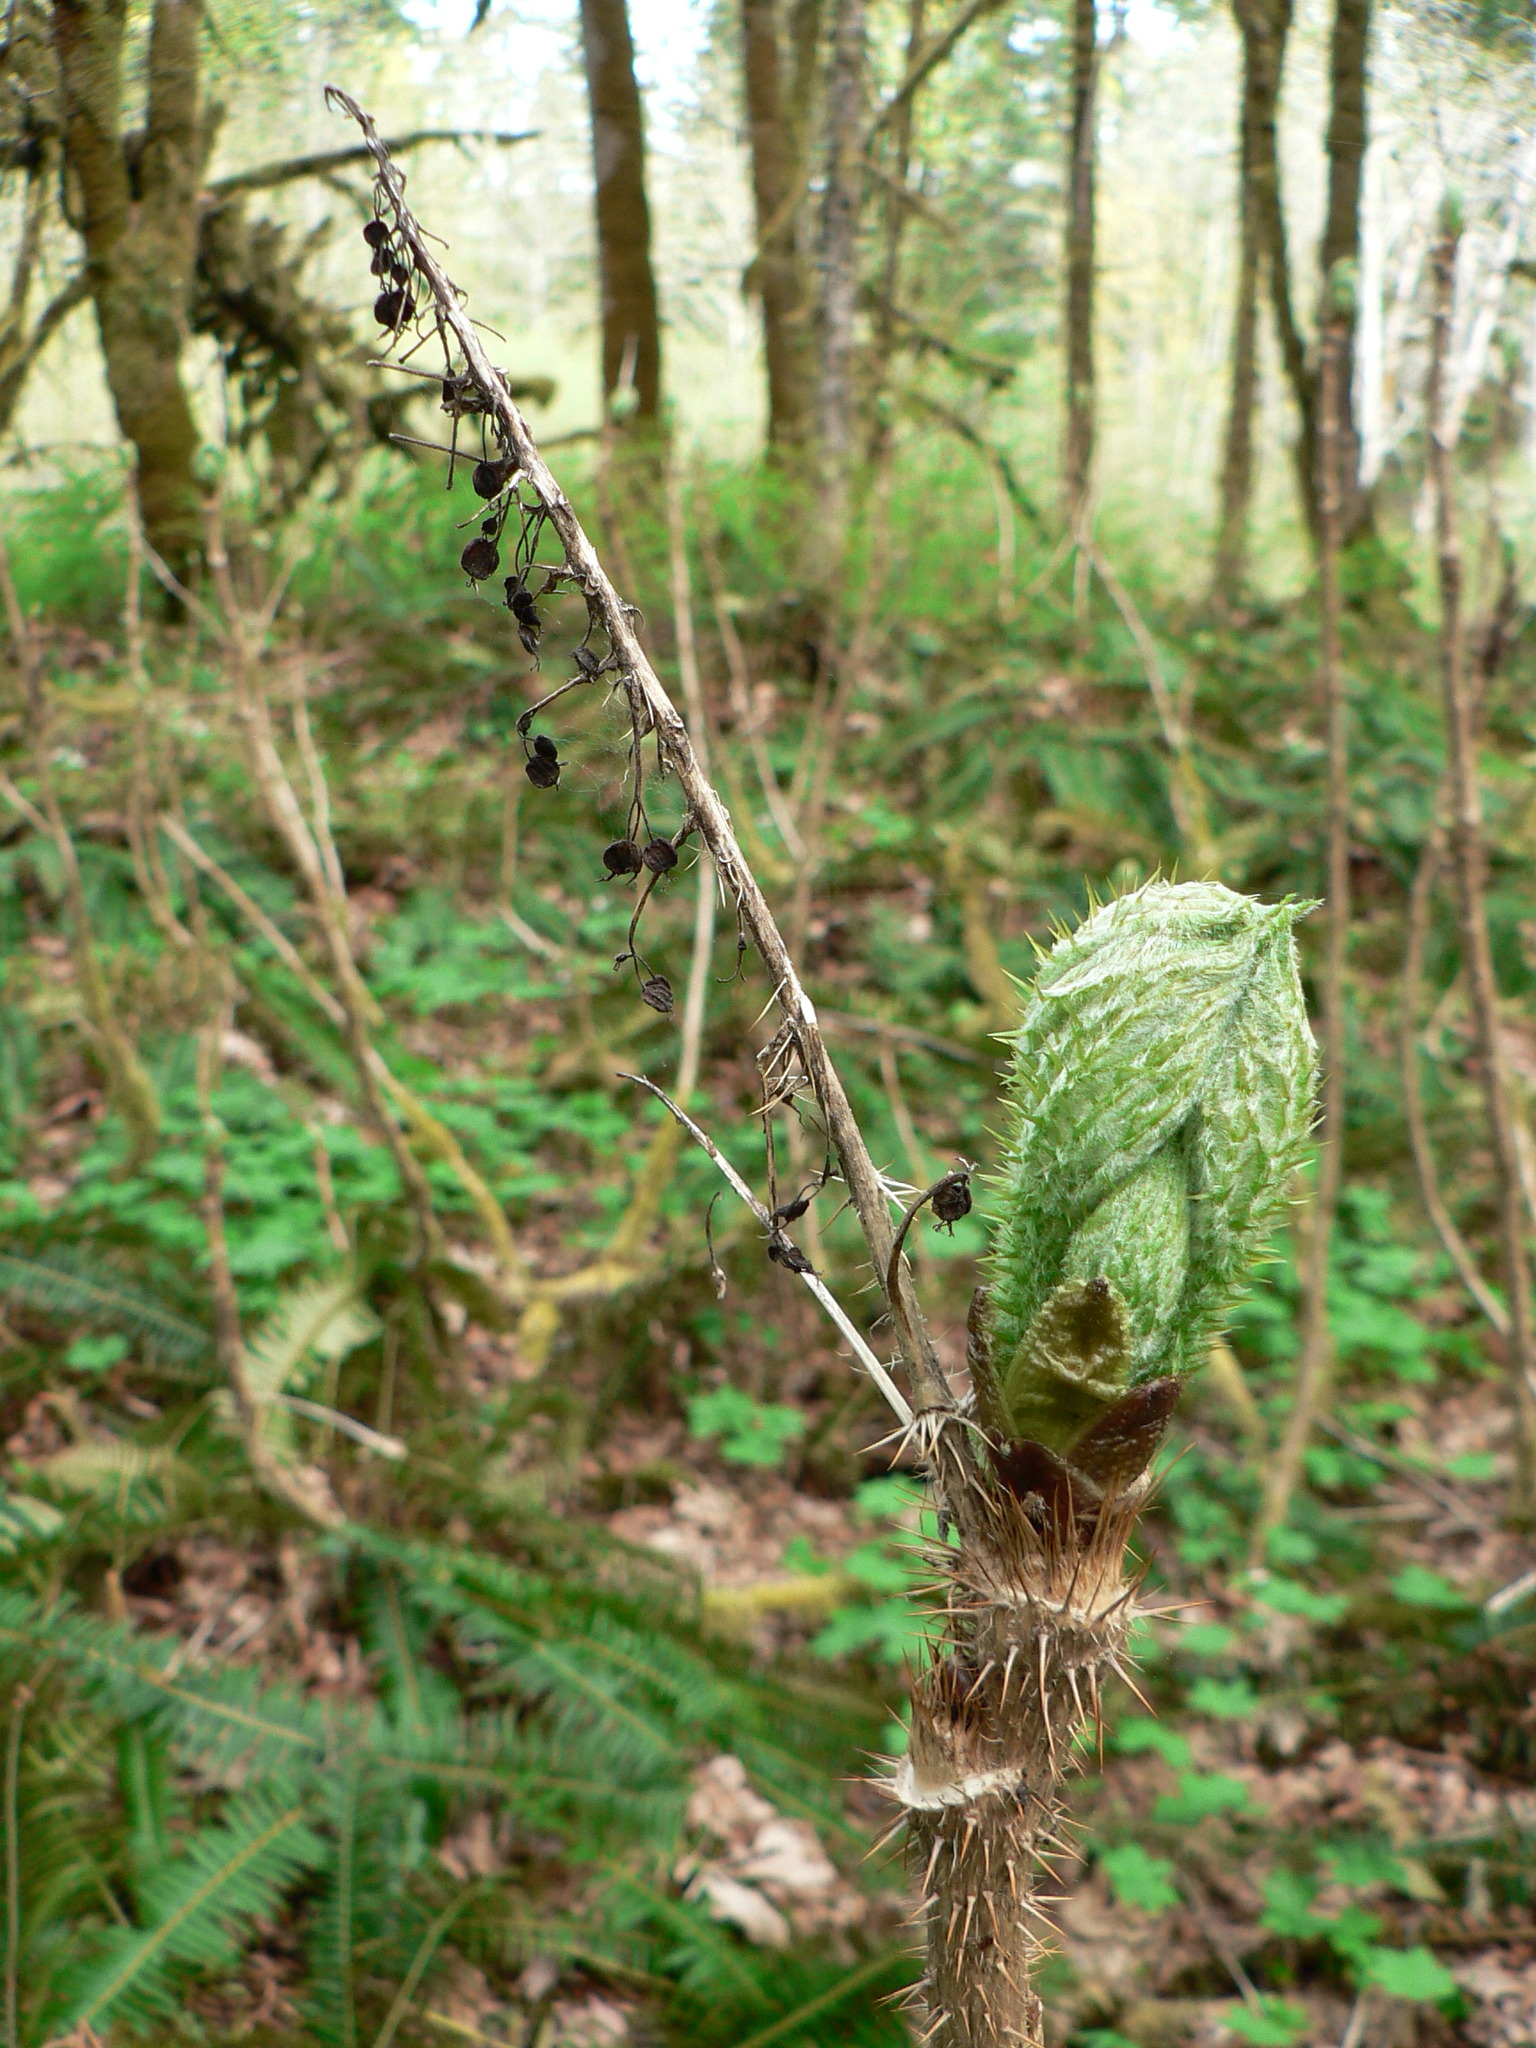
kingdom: Plantae
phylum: Tracheophyta
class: Magnoliopsida
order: Apiales
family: Araliaceae
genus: Oplopanax
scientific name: Oplopanax horridus
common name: Devil's walking-stick
